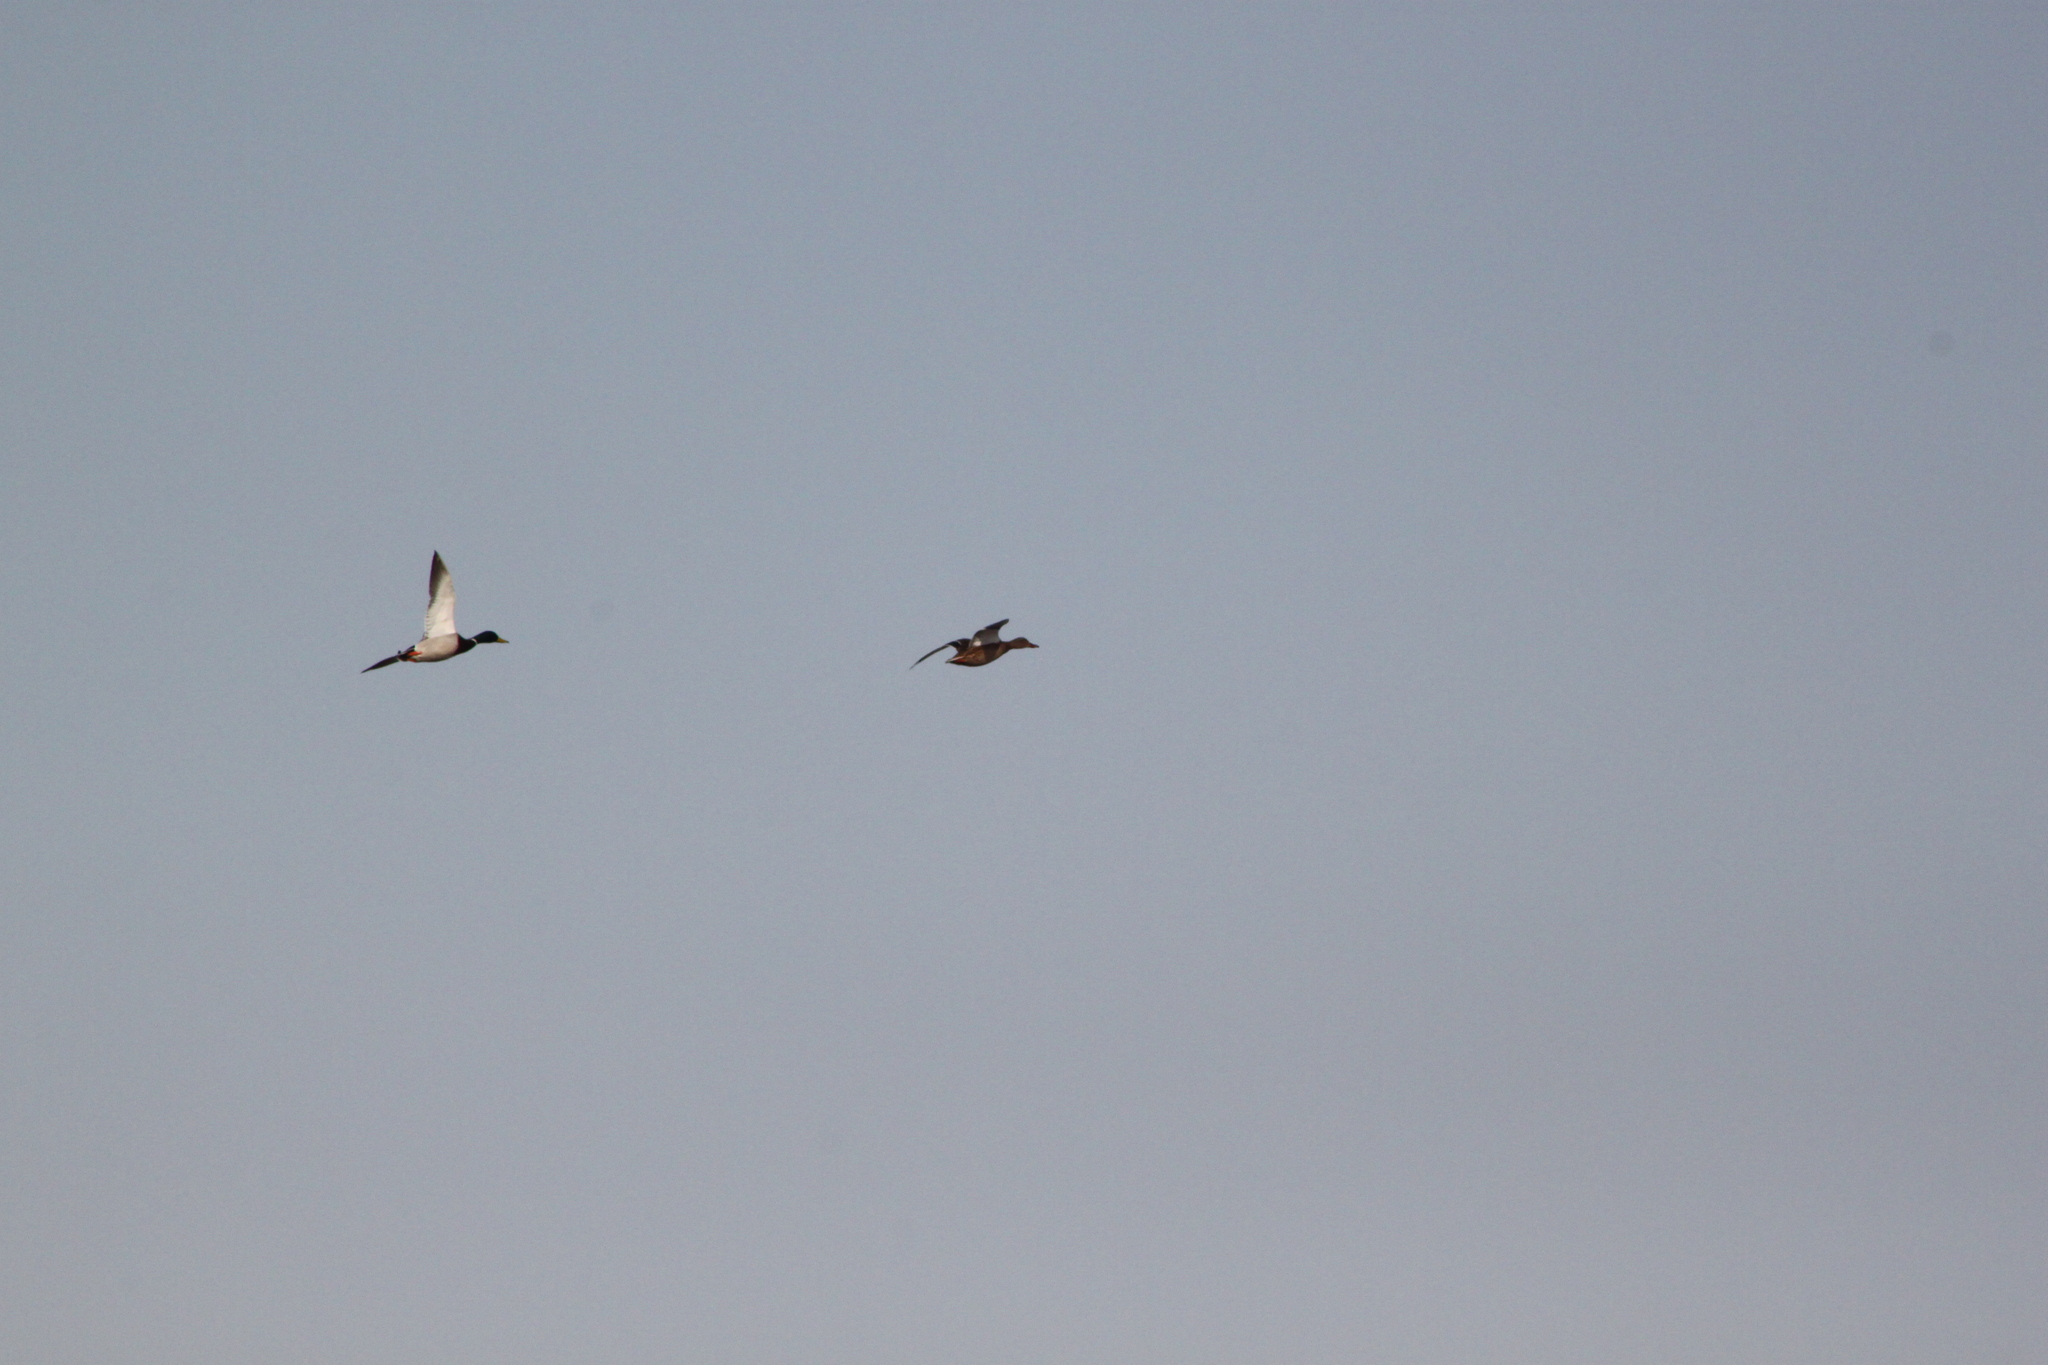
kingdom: Animalia
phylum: Chordata
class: Aves
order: Anseriformes
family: Anatidae
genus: Anas
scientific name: Anas platyrhynchos
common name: Mallard
